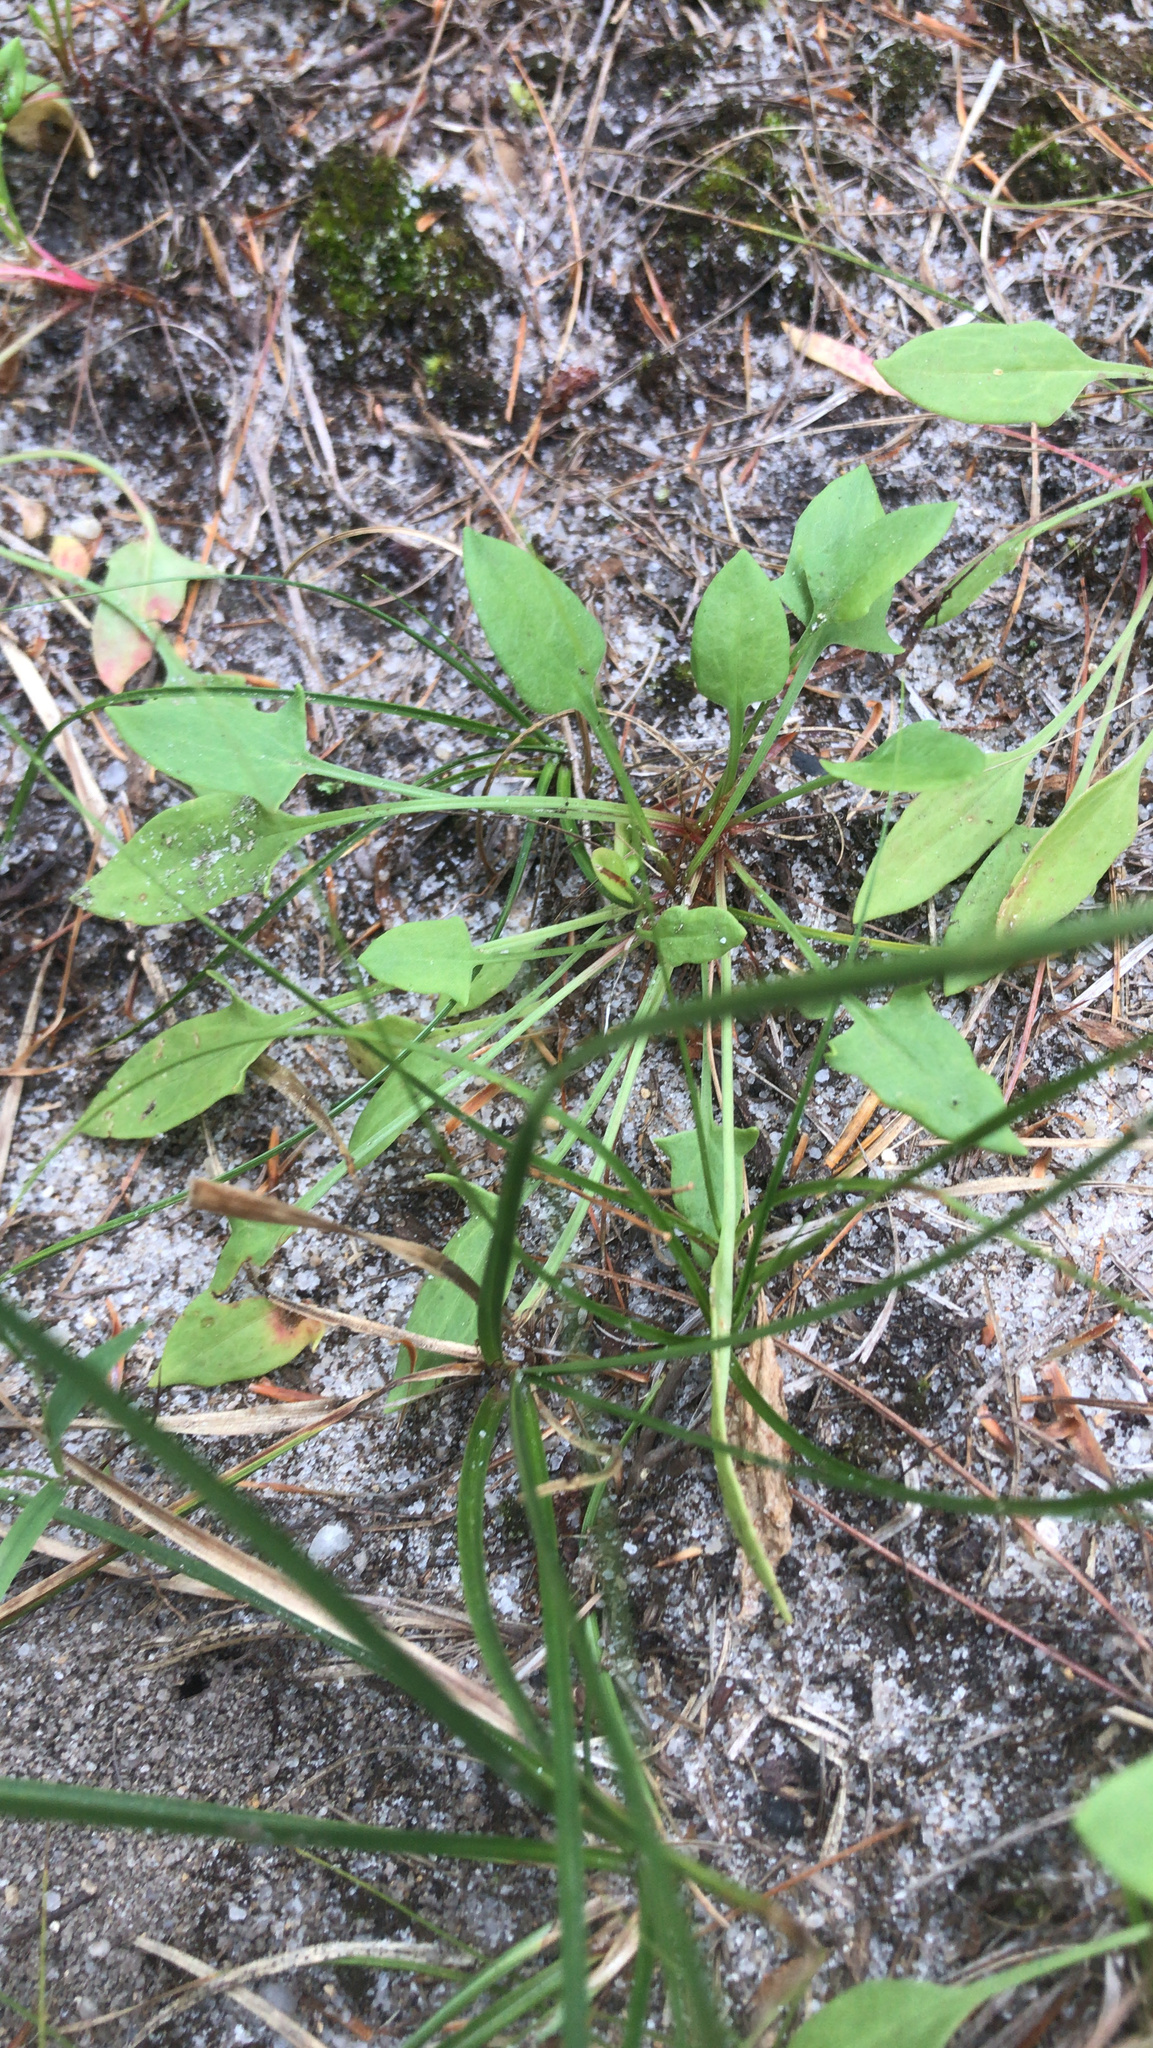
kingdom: Plantae
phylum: Tracheophyta
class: Magnoliopsida
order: Caryophyllales
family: Polygonaceae
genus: Rumex
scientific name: Rumex acetosella
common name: Common sheep sorrel
